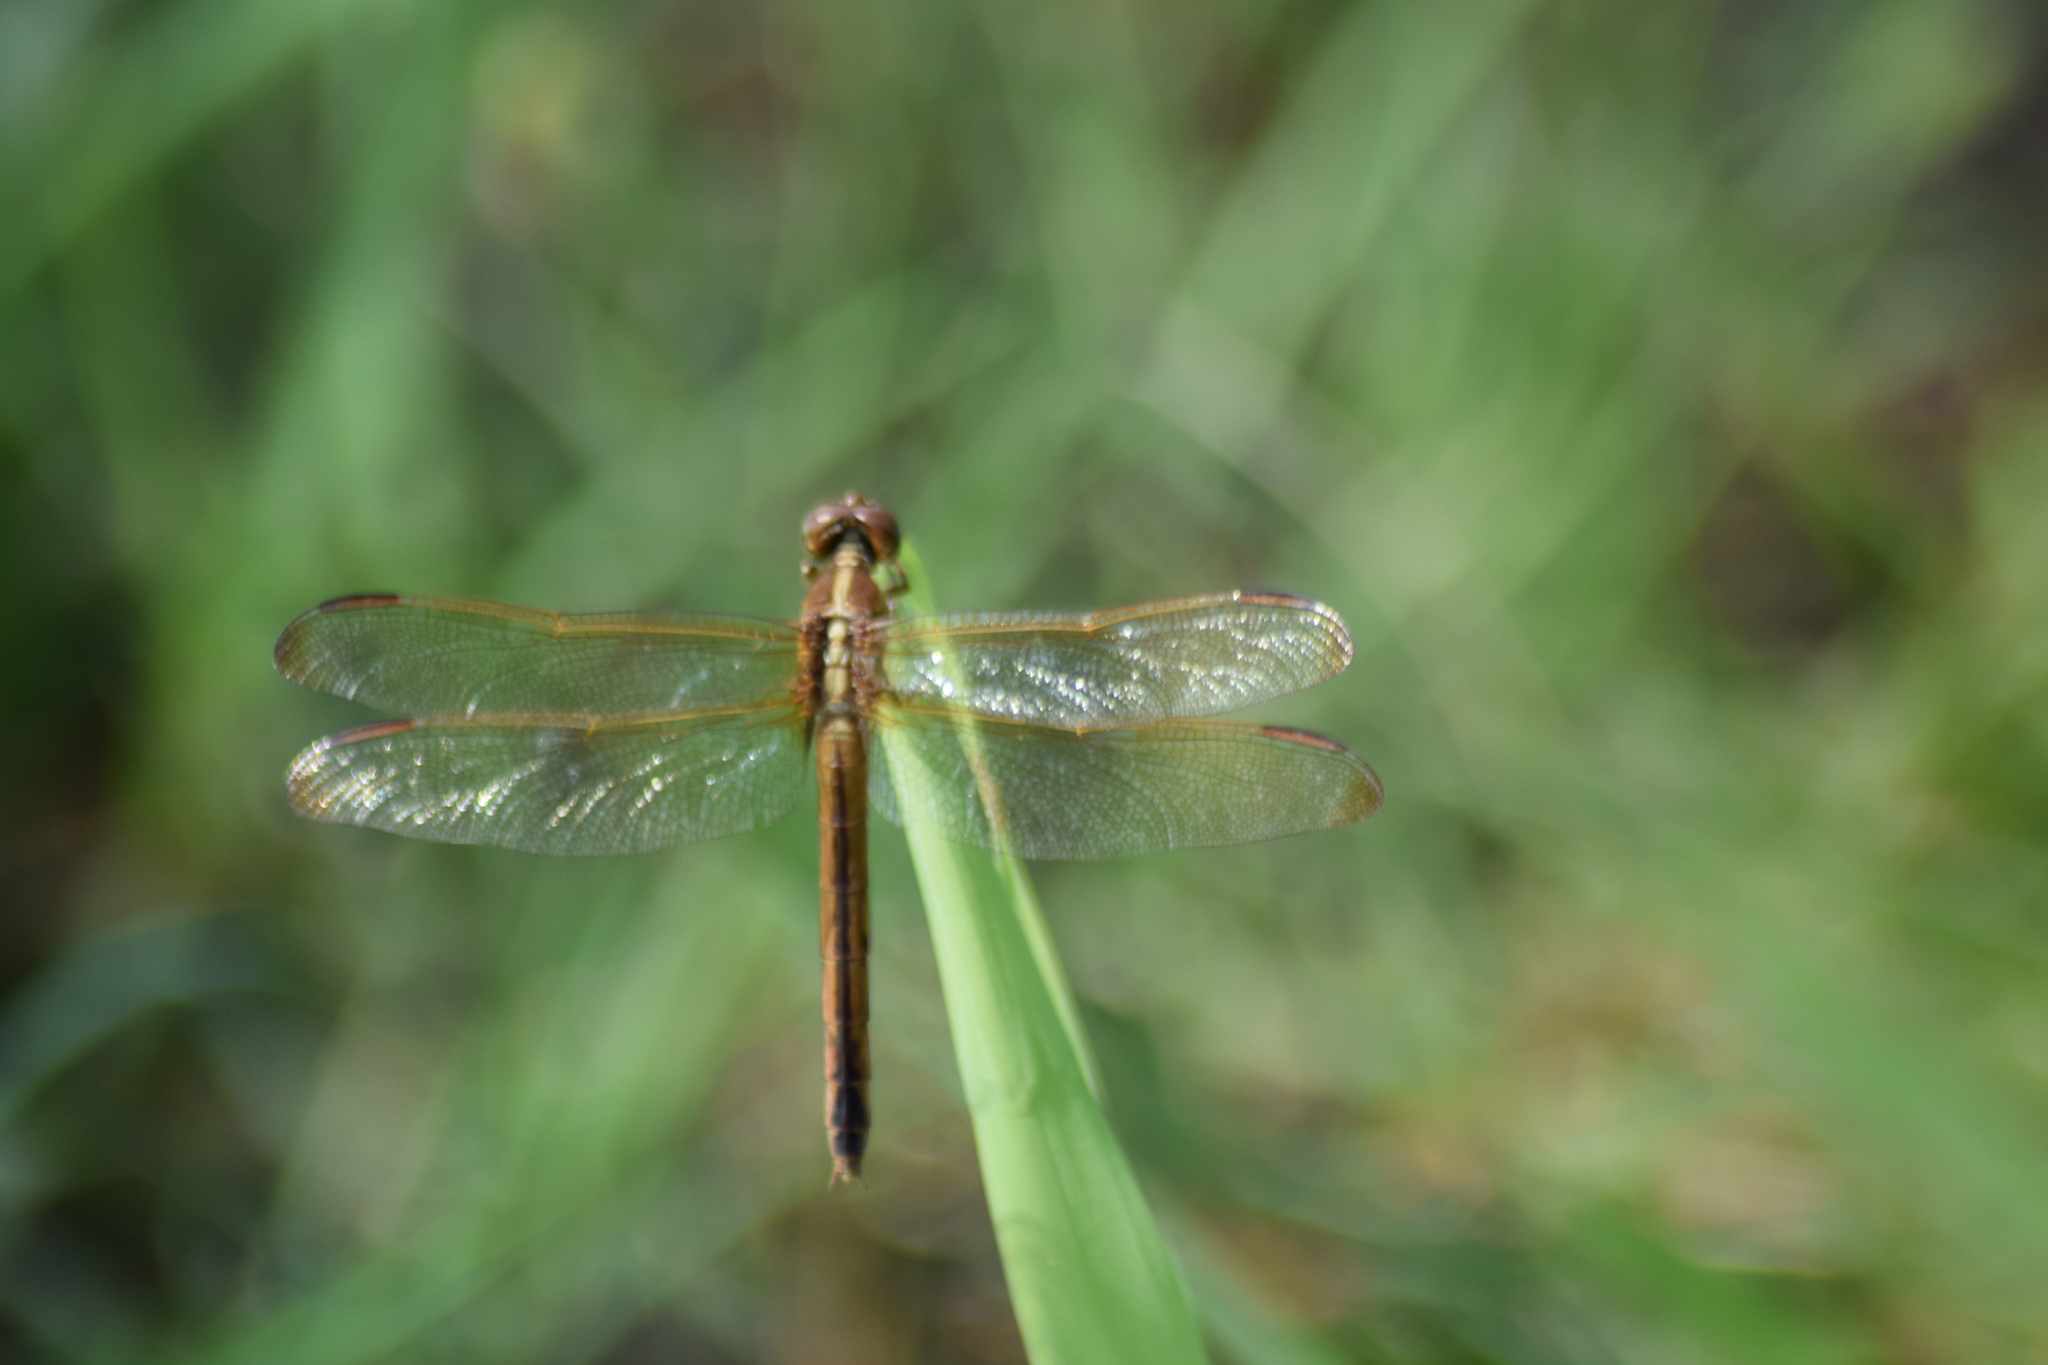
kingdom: Animalia
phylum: Arthropoda
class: Insecta
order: Odonata
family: Libellulidae
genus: Libellula
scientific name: Libellula needhami
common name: Needham's skimmer
